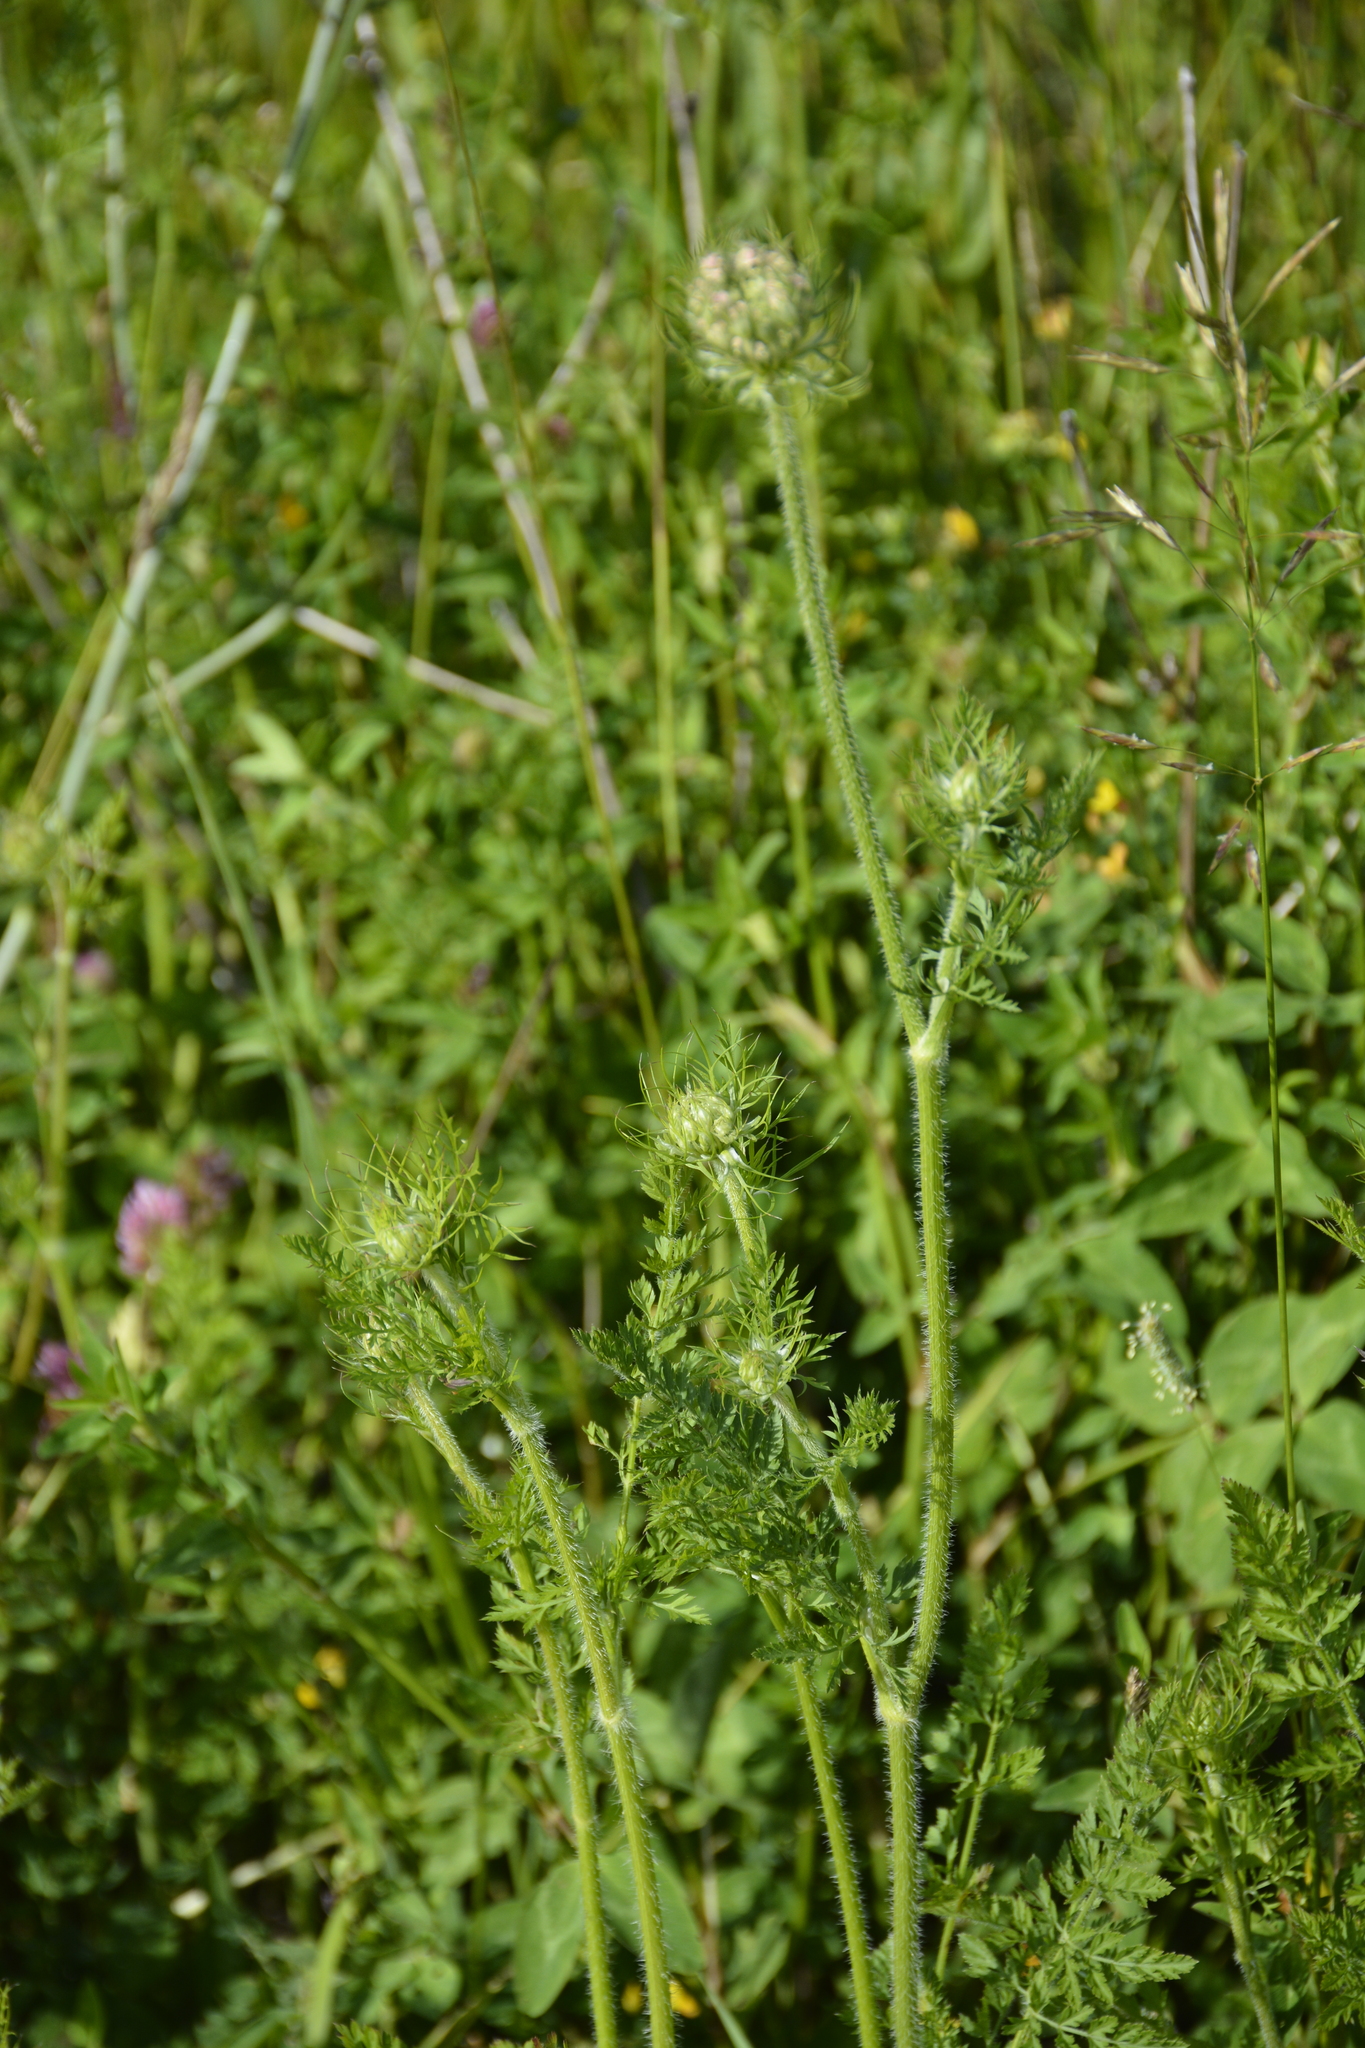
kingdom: Plantae
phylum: Tracheophyta
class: Magnoliopsida
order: Apiales
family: Apiaceae
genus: Daucus
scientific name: Daucus carota
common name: Wild carrot
